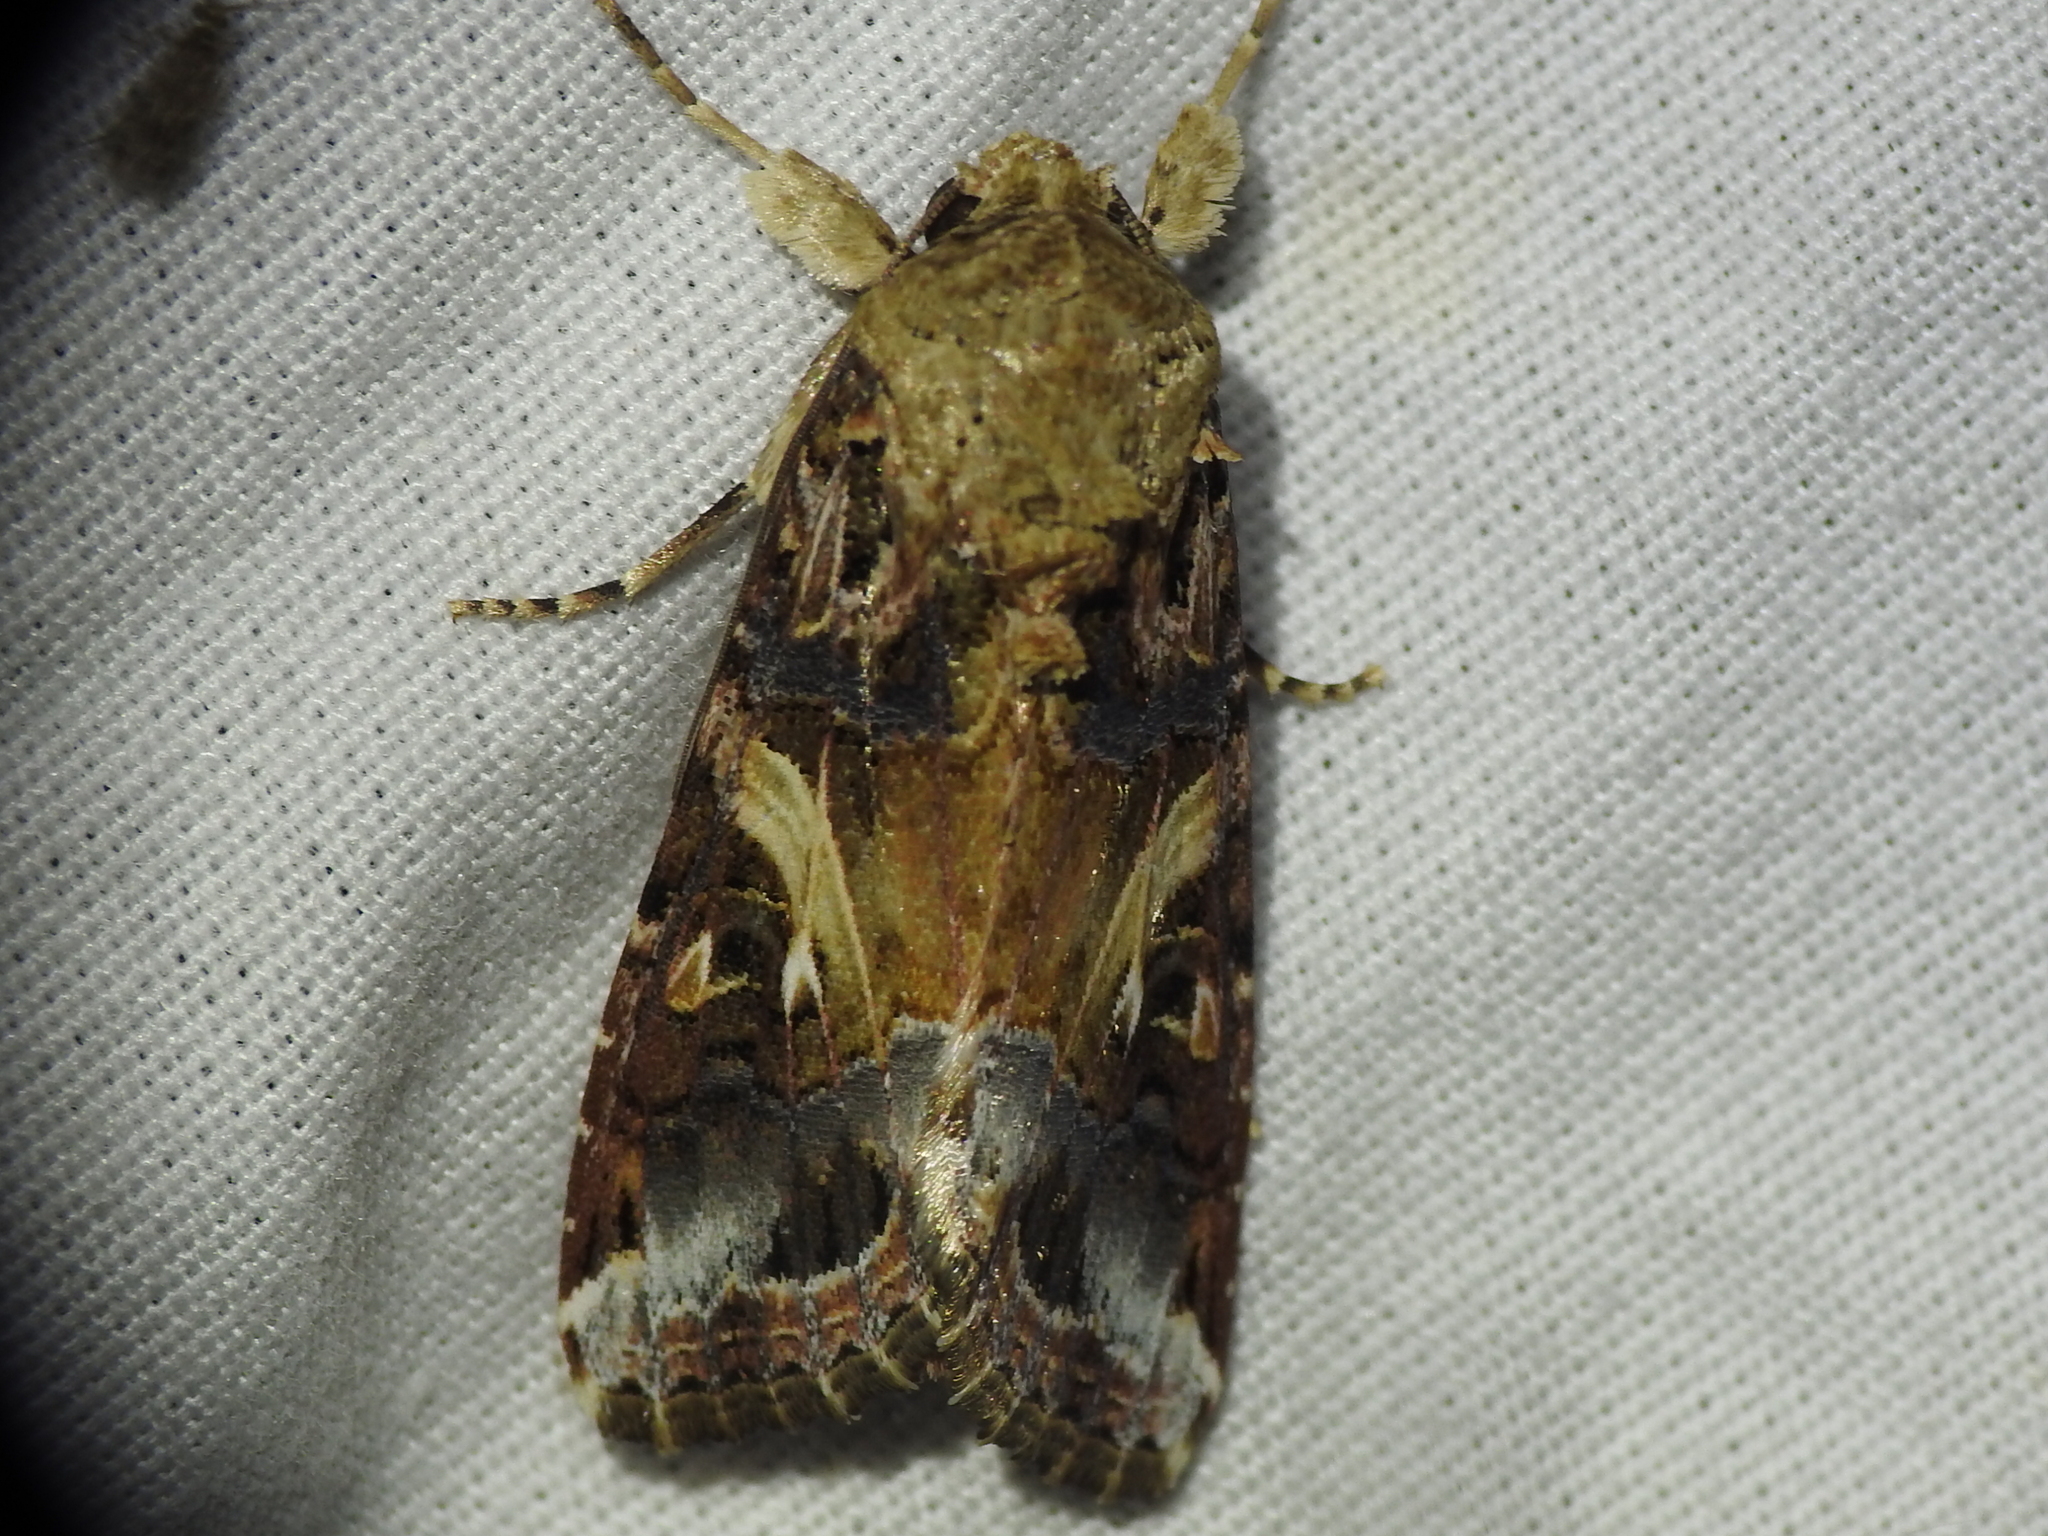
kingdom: Animalia
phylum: Arthropoda
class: Insecta
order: Lepidoptera
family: Noctuidae
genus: Spodoptera
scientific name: Spodoptera ornithogalli
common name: Yellow-striped armyworm
